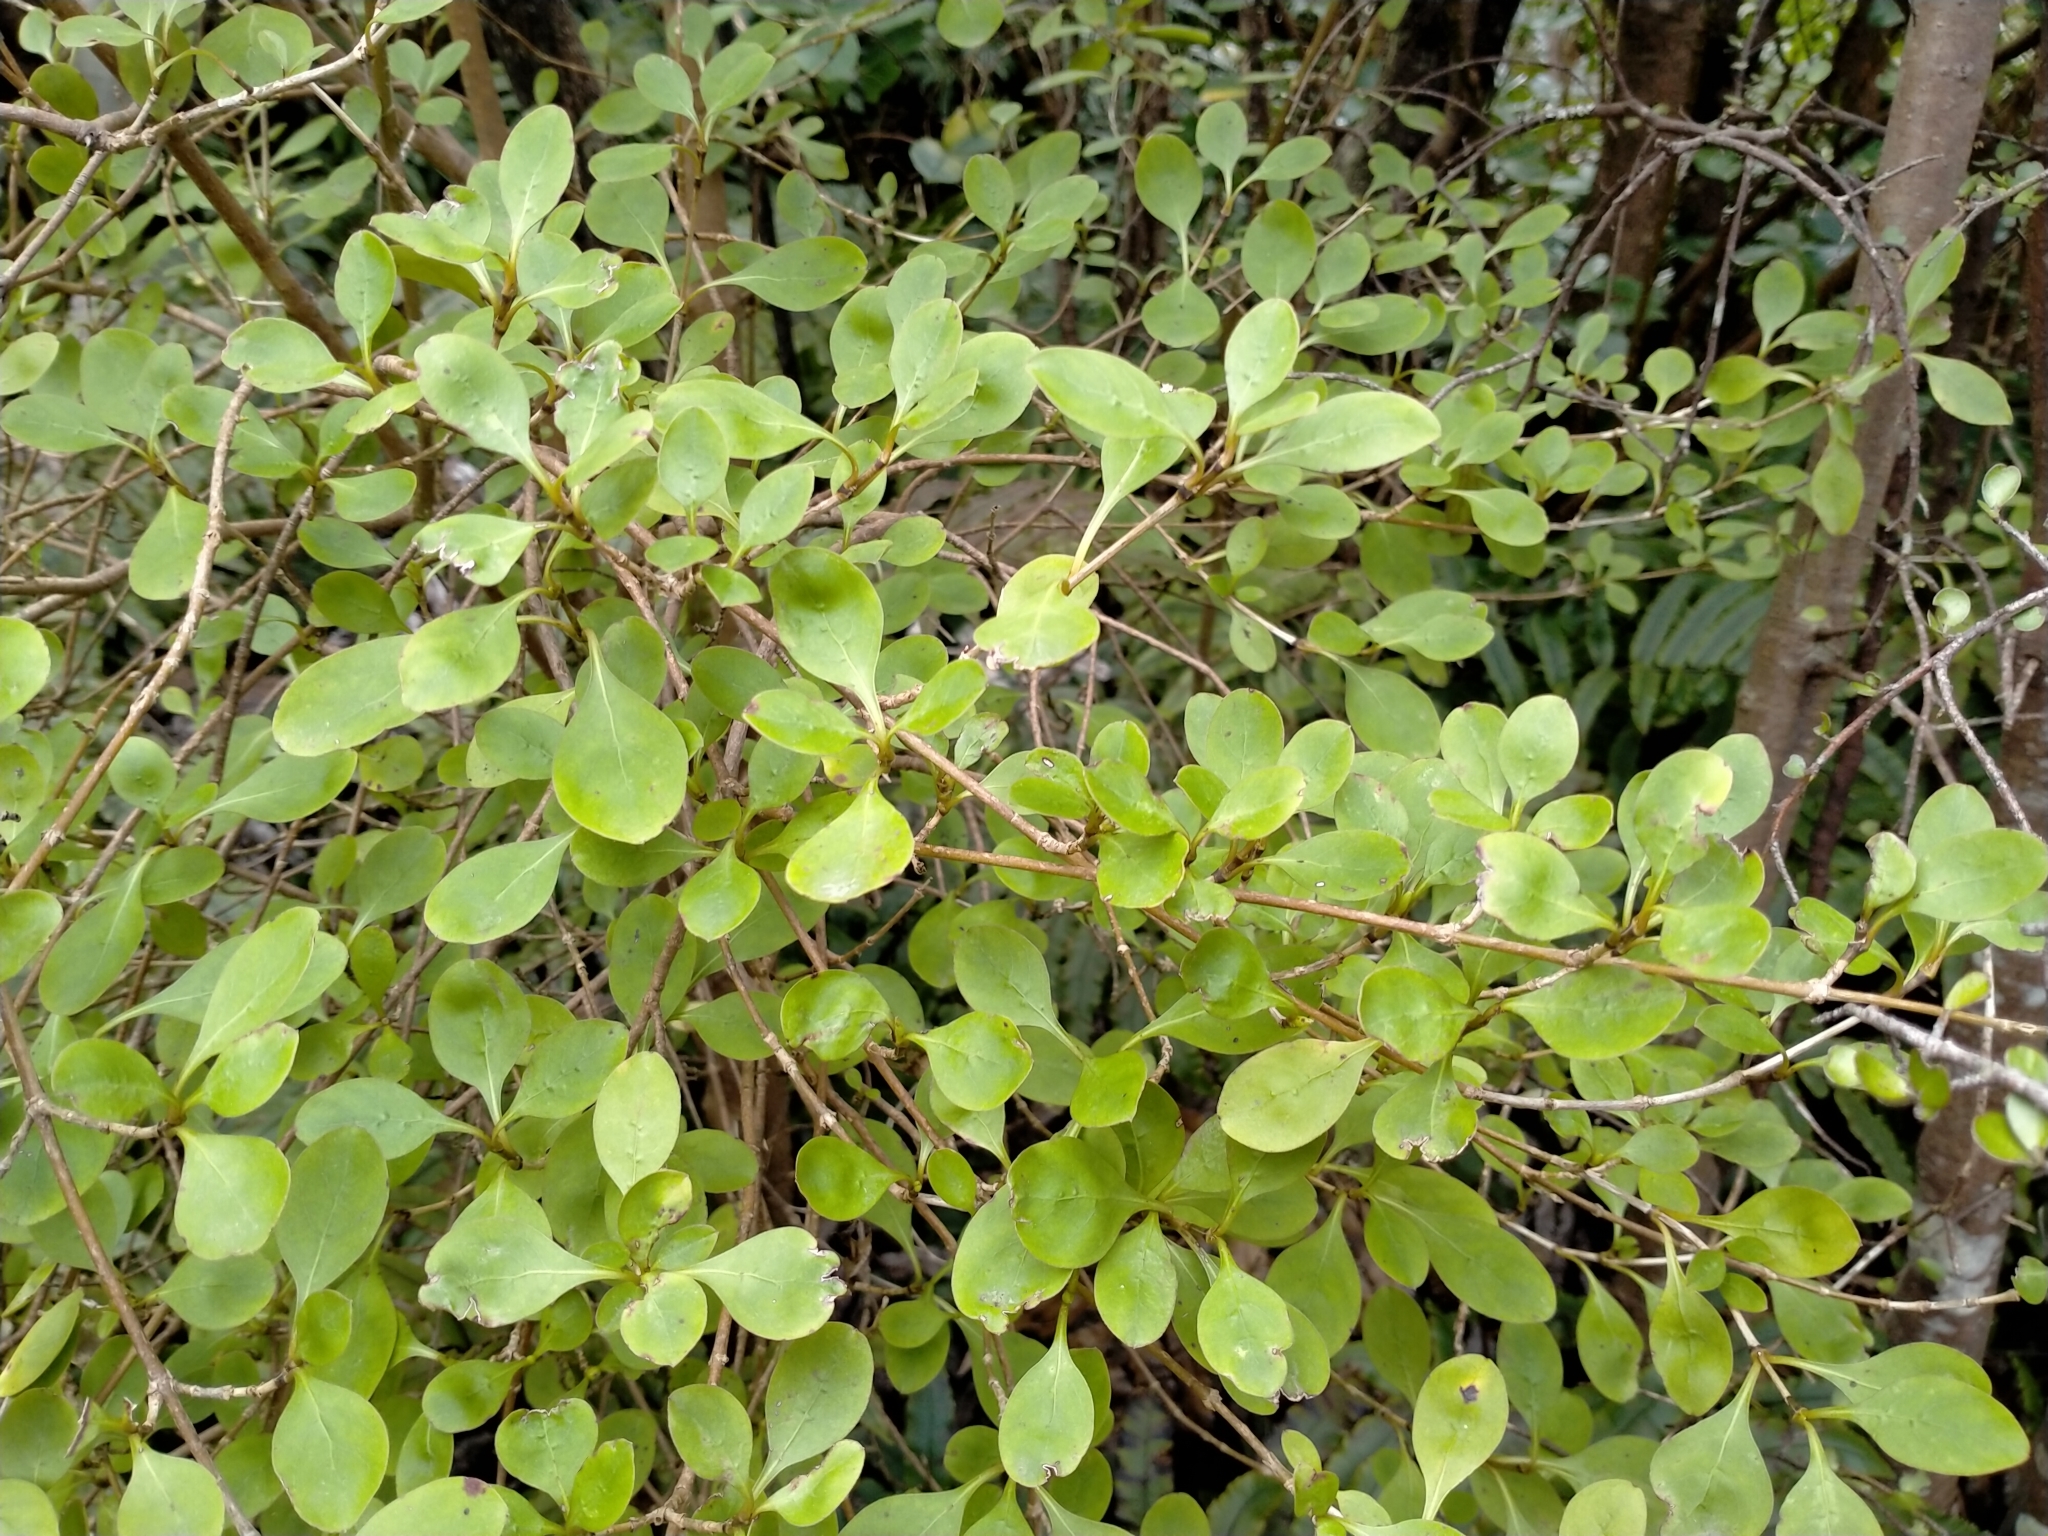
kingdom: Plantae
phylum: Tracheophyta
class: Magnoliopsida
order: Gentianales
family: Rubiaceae
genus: Coprosma
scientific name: Coprosma foetidissima
